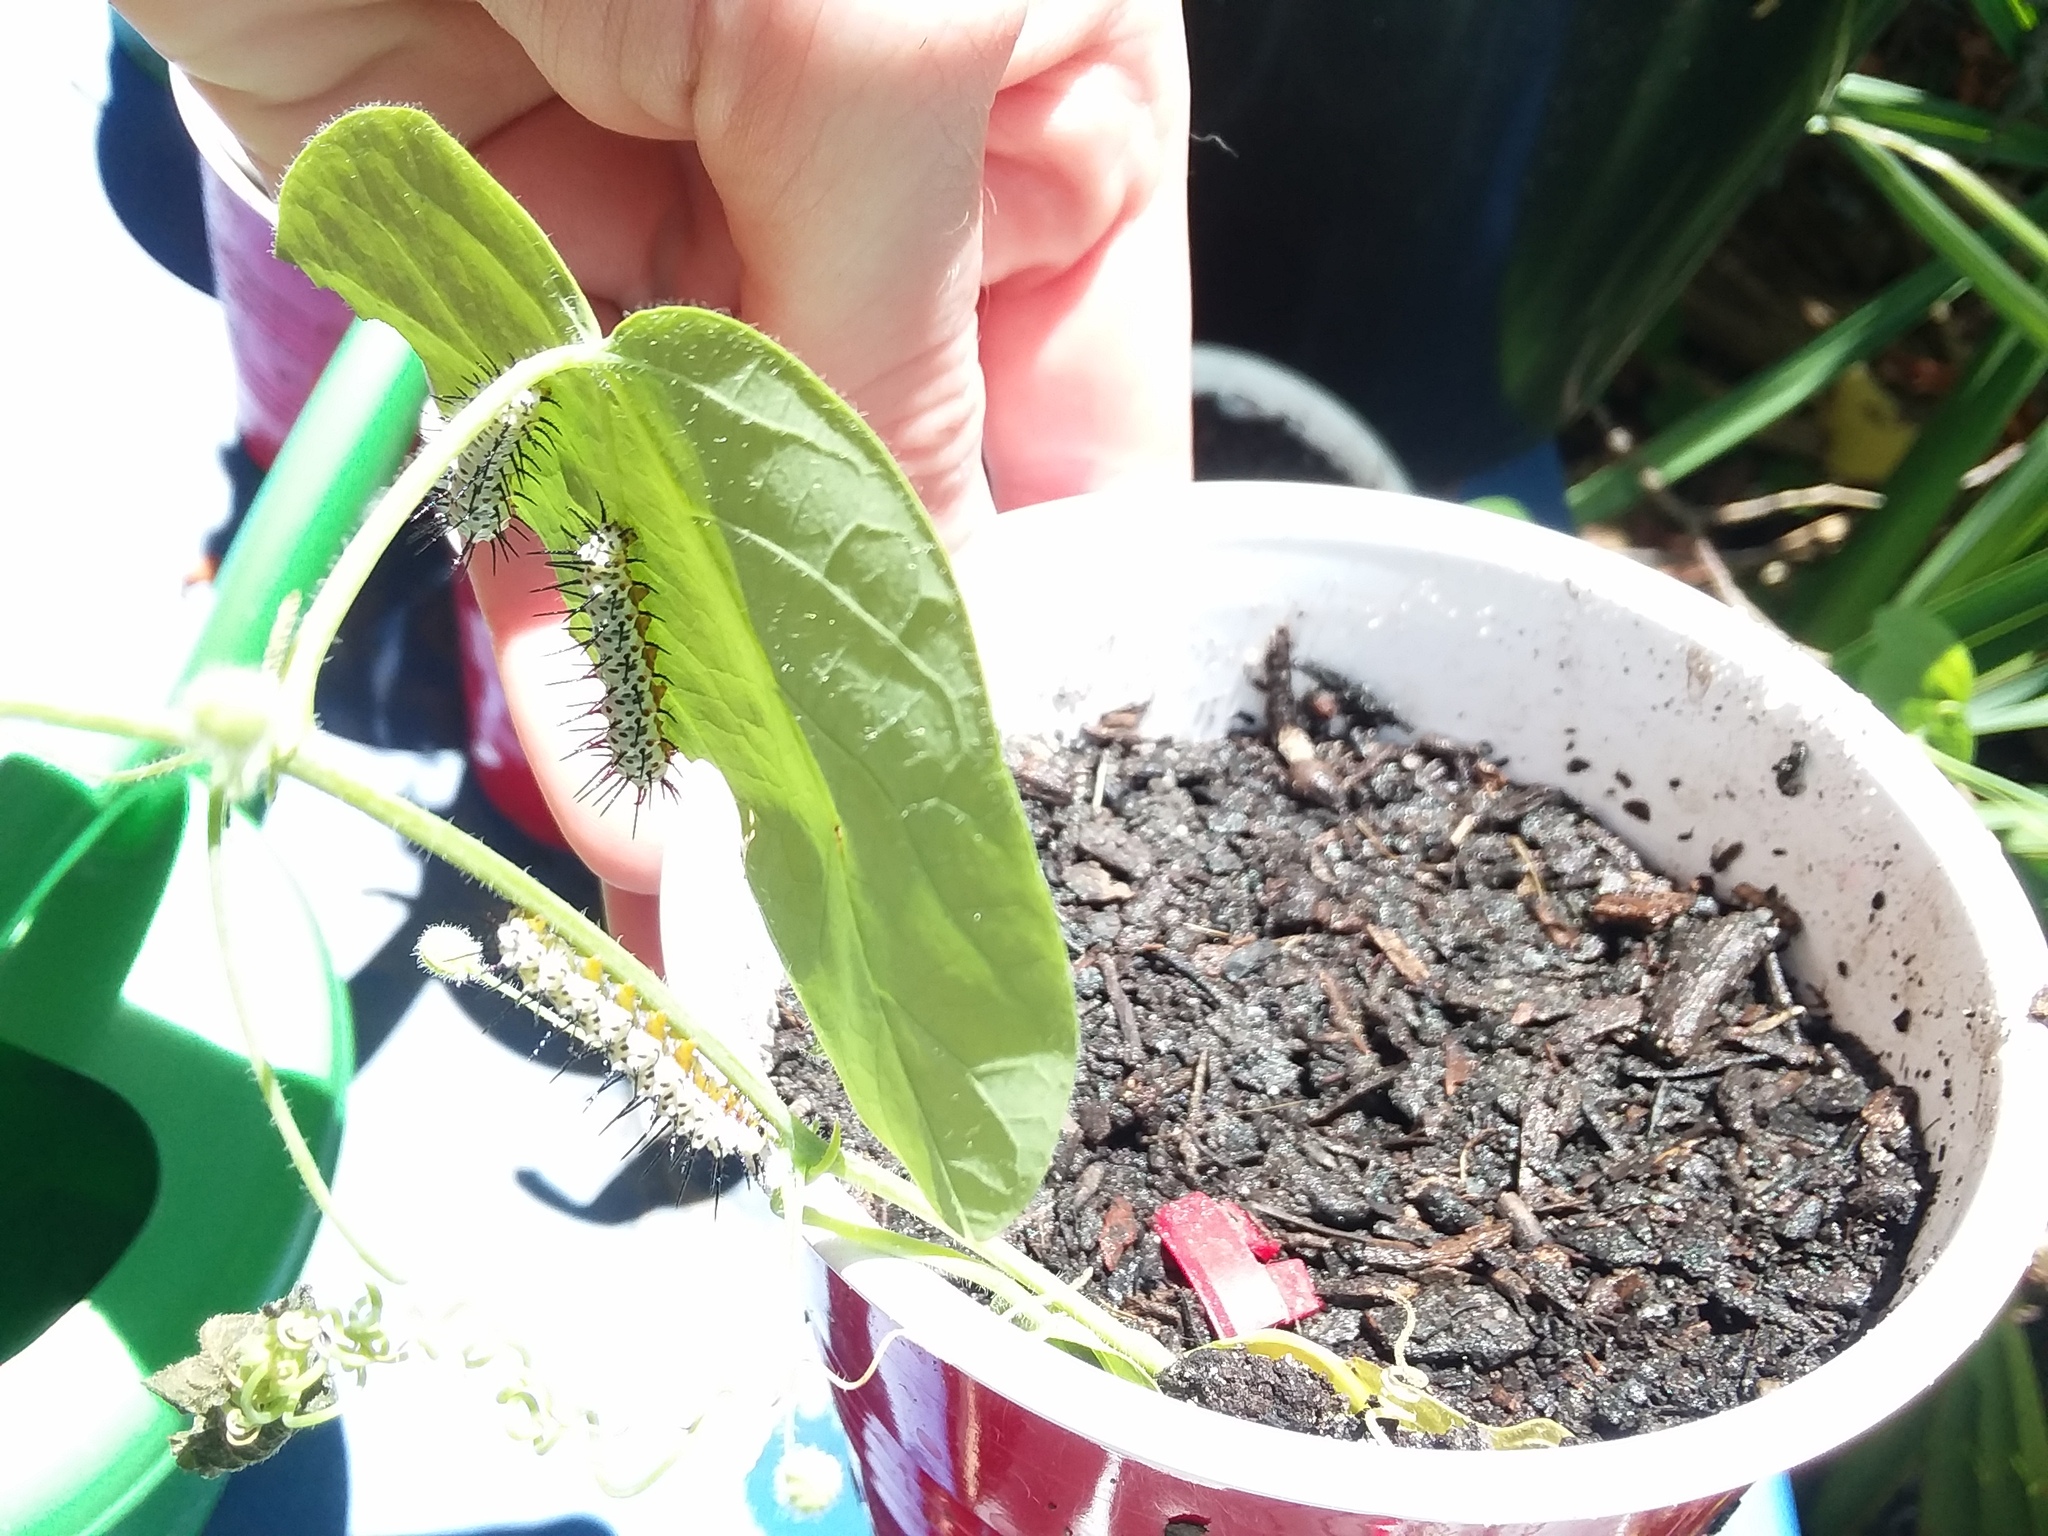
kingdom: Animalia
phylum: Arthropoda
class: Insecta
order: Lepidoptera
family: Nymphalidae
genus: Heliconius
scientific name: Heliconius charithonia
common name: Zebra long wing
